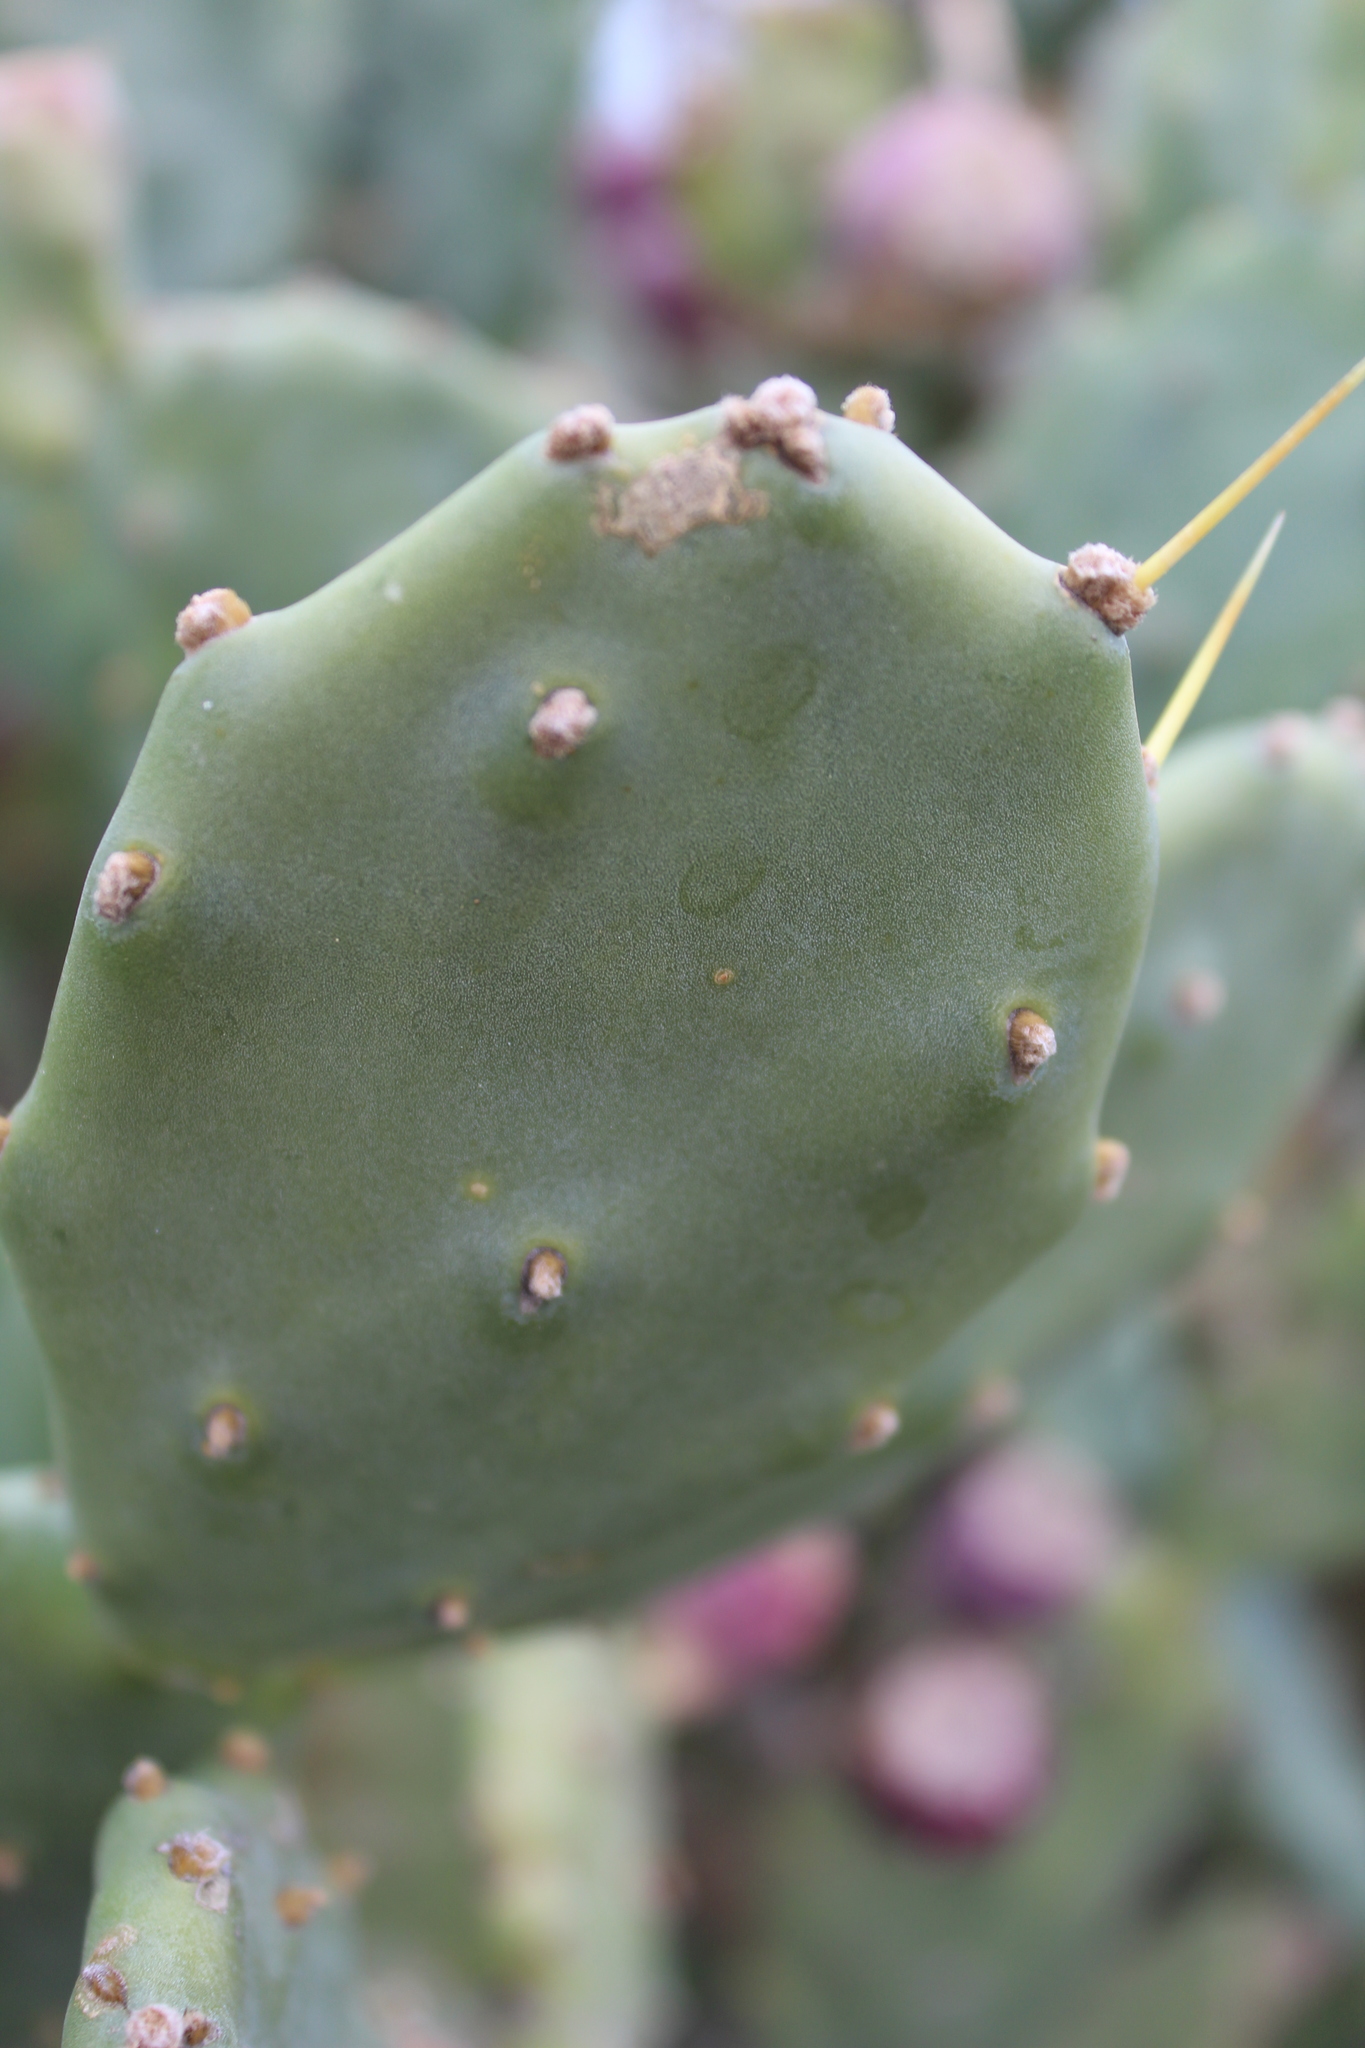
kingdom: Plantae
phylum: Tracheophyta
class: Magnoliopsida
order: Caryophyllales
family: Cactaceae
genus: Opuntia
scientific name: Opuntia stricta
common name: Erect pricklypear
